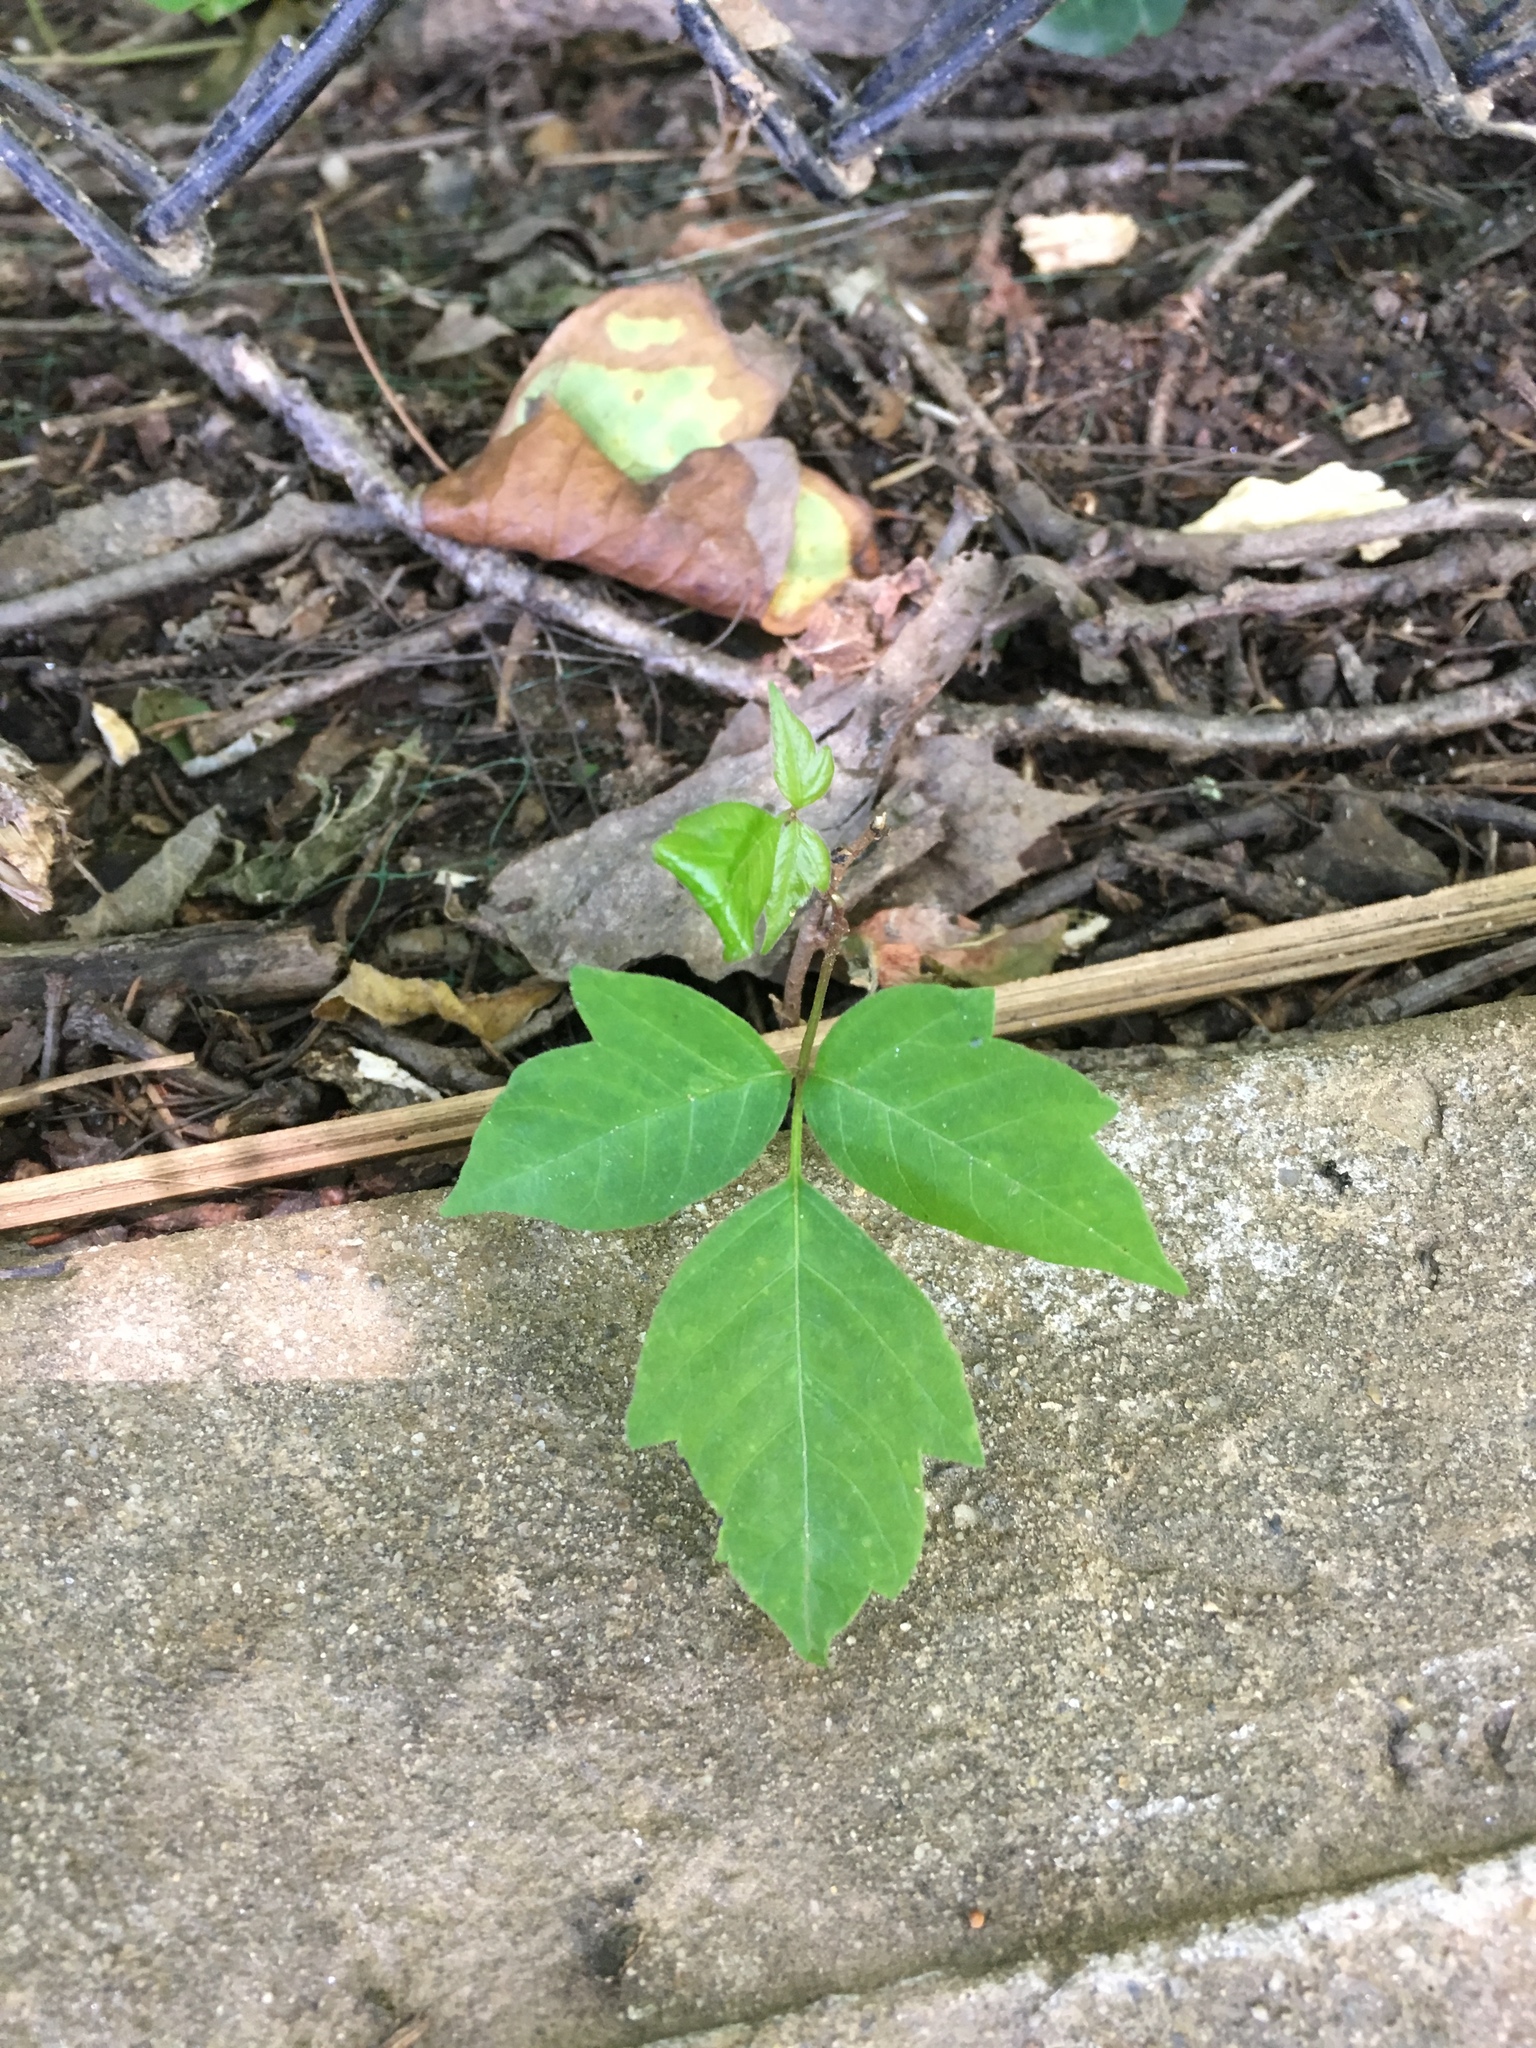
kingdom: Plantae
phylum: Tracheophyta
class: Magnoliopsida
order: Sapindales
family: Anacardiaceae
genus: Toxicodendron
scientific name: Toxicodendron radicans
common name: Poison ivy
